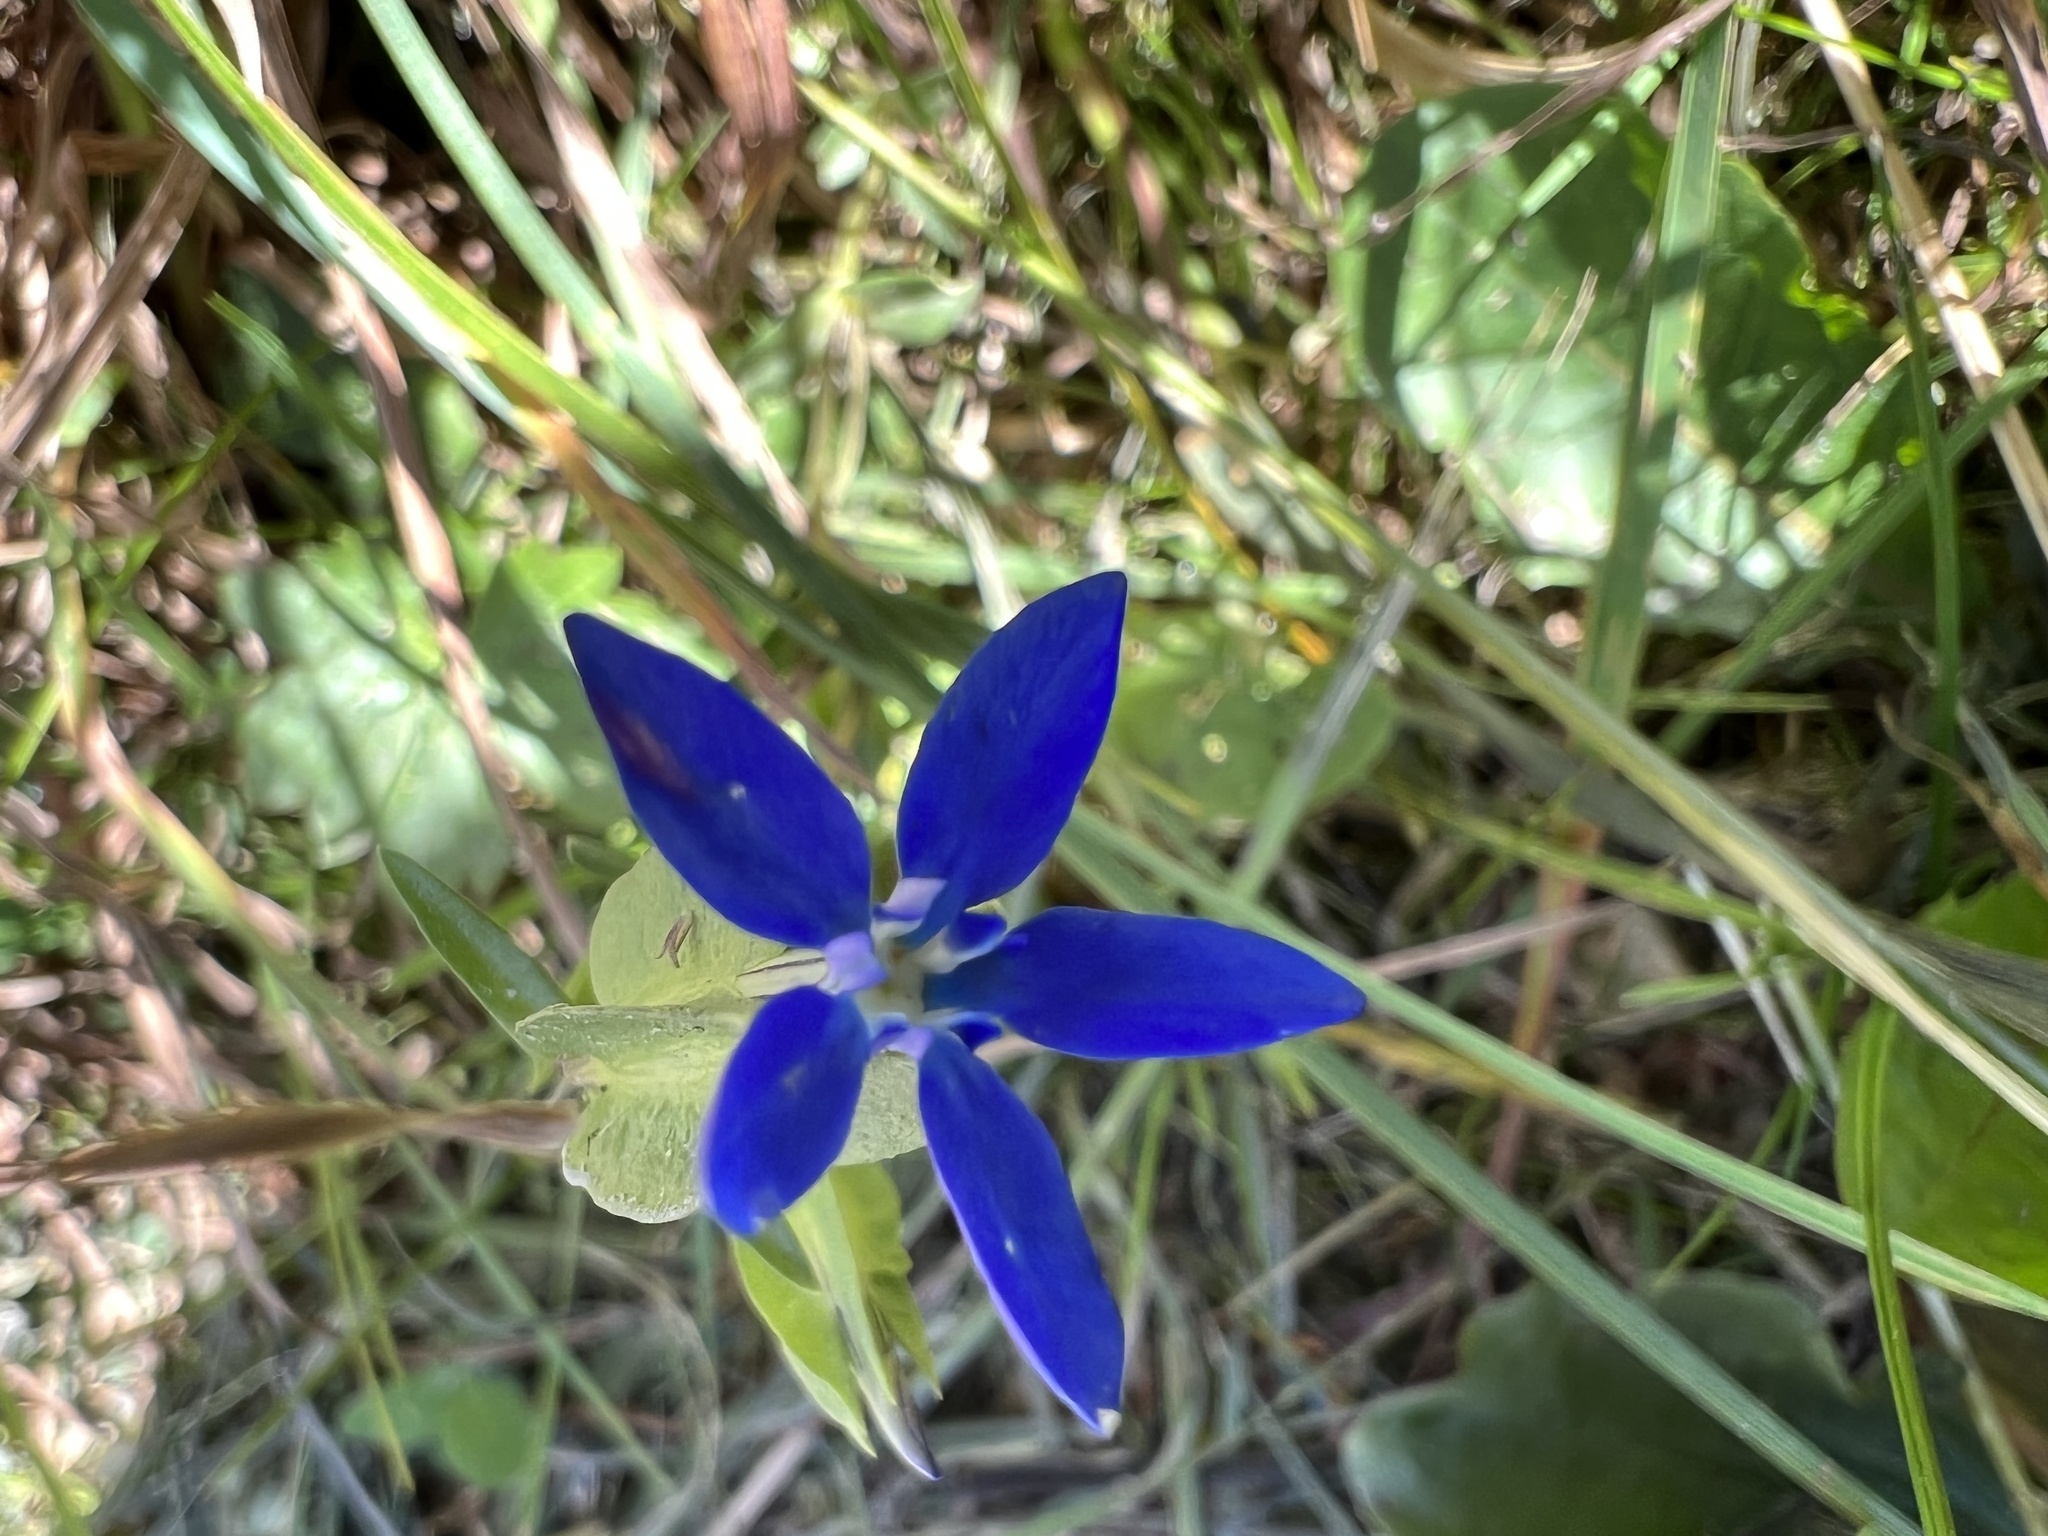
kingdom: Plantae
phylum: Tracheophyta
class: Magnoliopsida
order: Gentianales
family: Gentianaceae
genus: Gentiana
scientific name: Gentiana utriculosa
